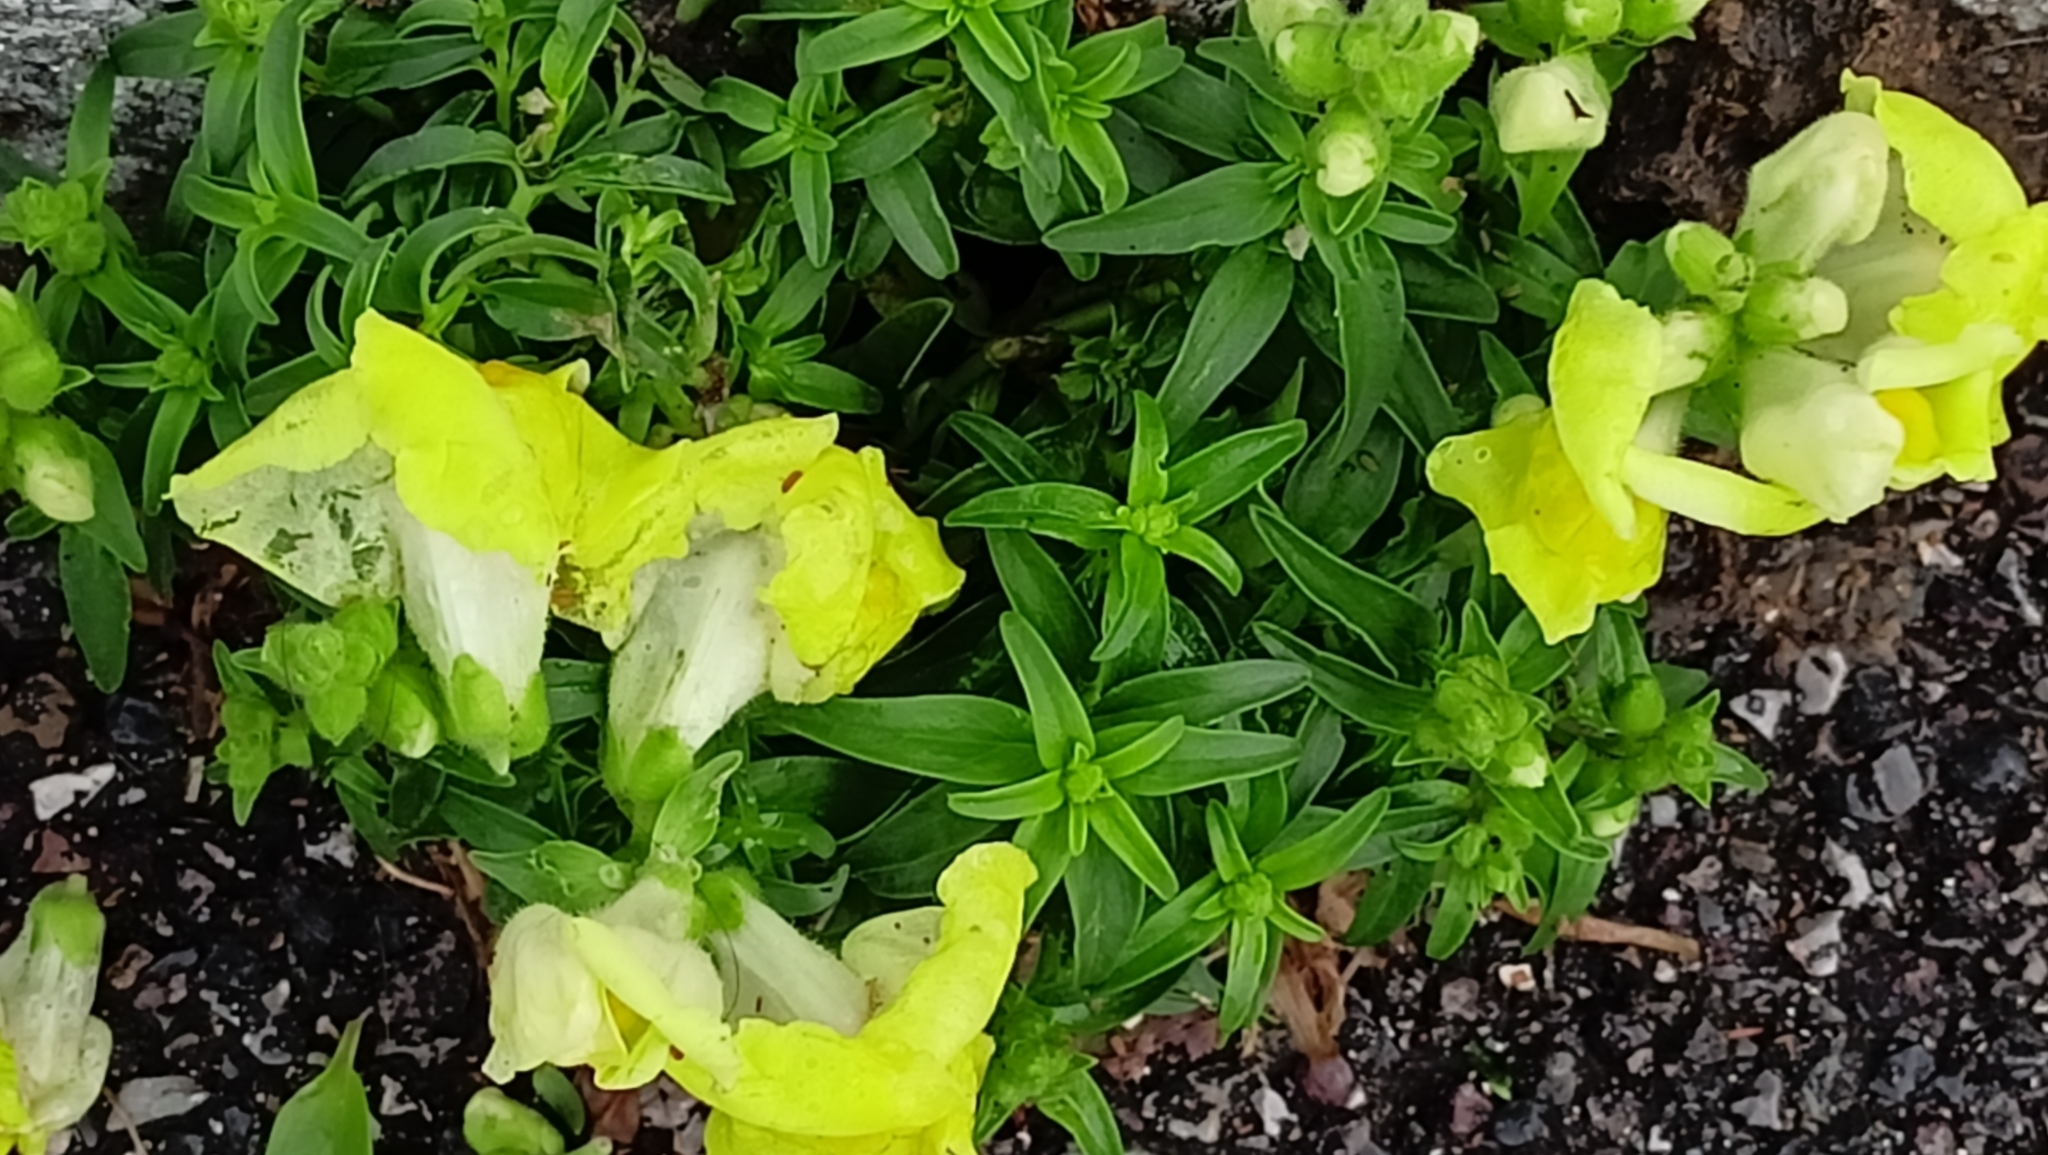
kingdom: Plantae
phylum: Tracheophyta
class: Magnoliopsida
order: Lamiales
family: Plantaginaceae
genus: Antirrhinum
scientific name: Antirrhinum majus
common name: Snapdragon
